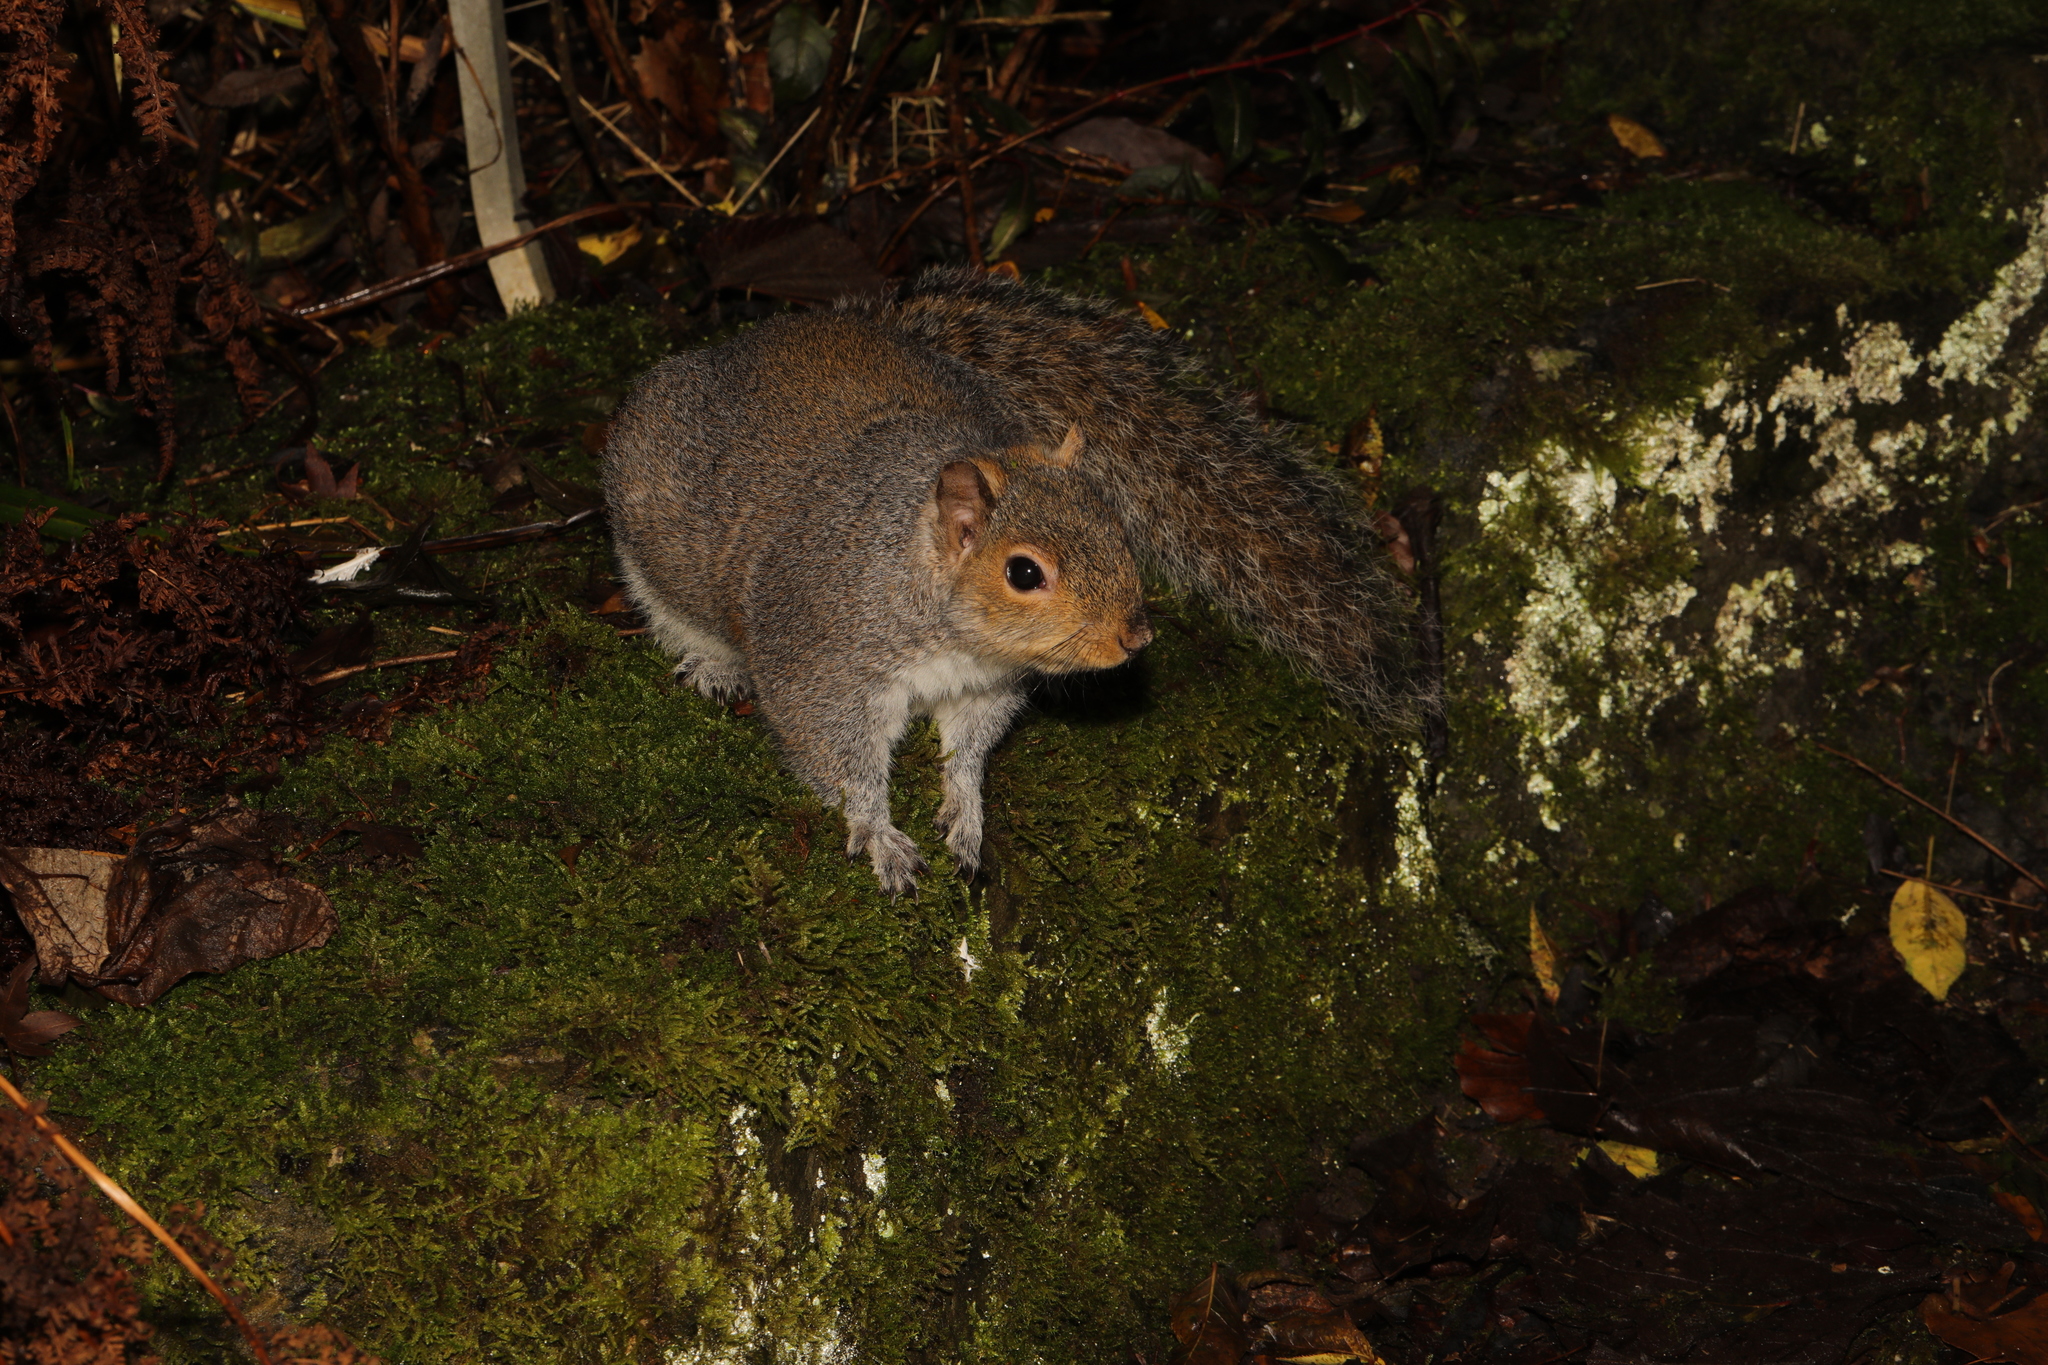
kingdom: Animalia
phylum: Chordata
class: Mammalia
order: Rodentia
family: Sciuridae
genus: Sciurus
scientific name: Sciurus carolinensis
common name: Eastern gray squirrel
